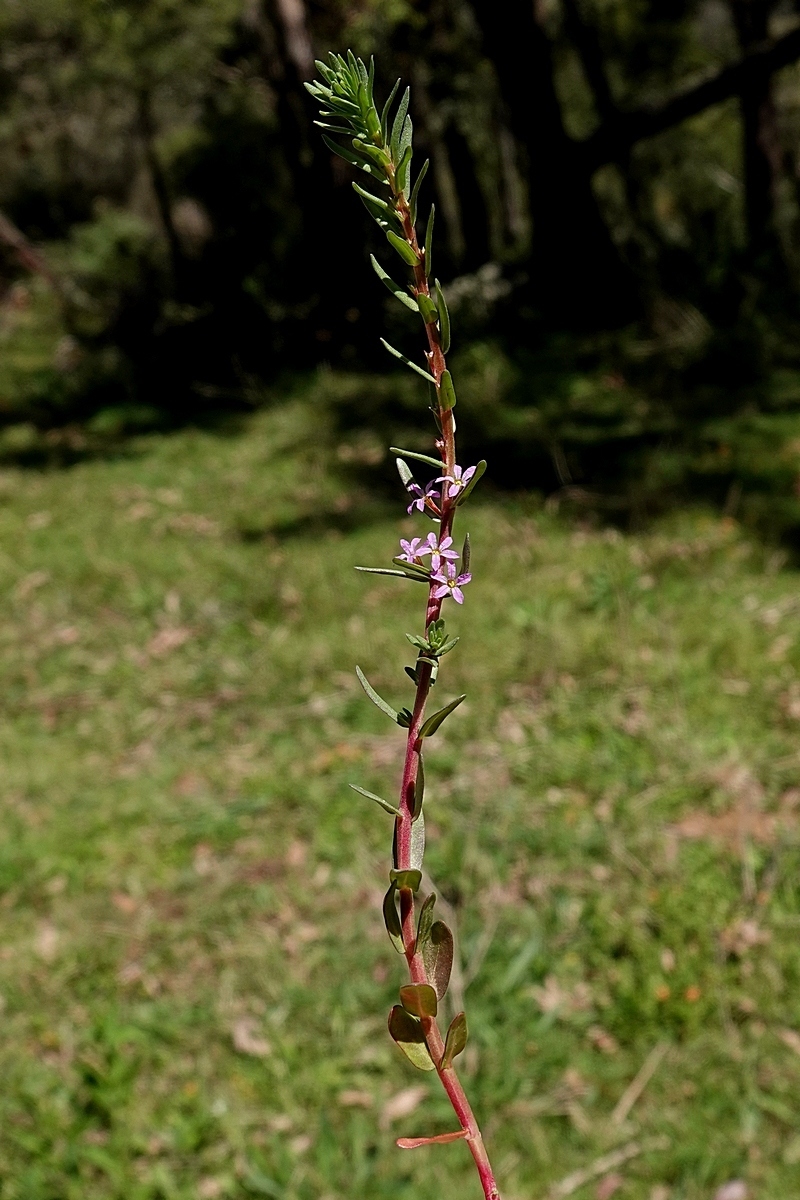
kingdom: Plantae
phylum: Tracheophyta
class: Magnoliopsida
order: Myrtales
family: Lythraceae
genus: Lythrum
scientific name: Lythrum hyssopifolia
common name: Grass-poly
